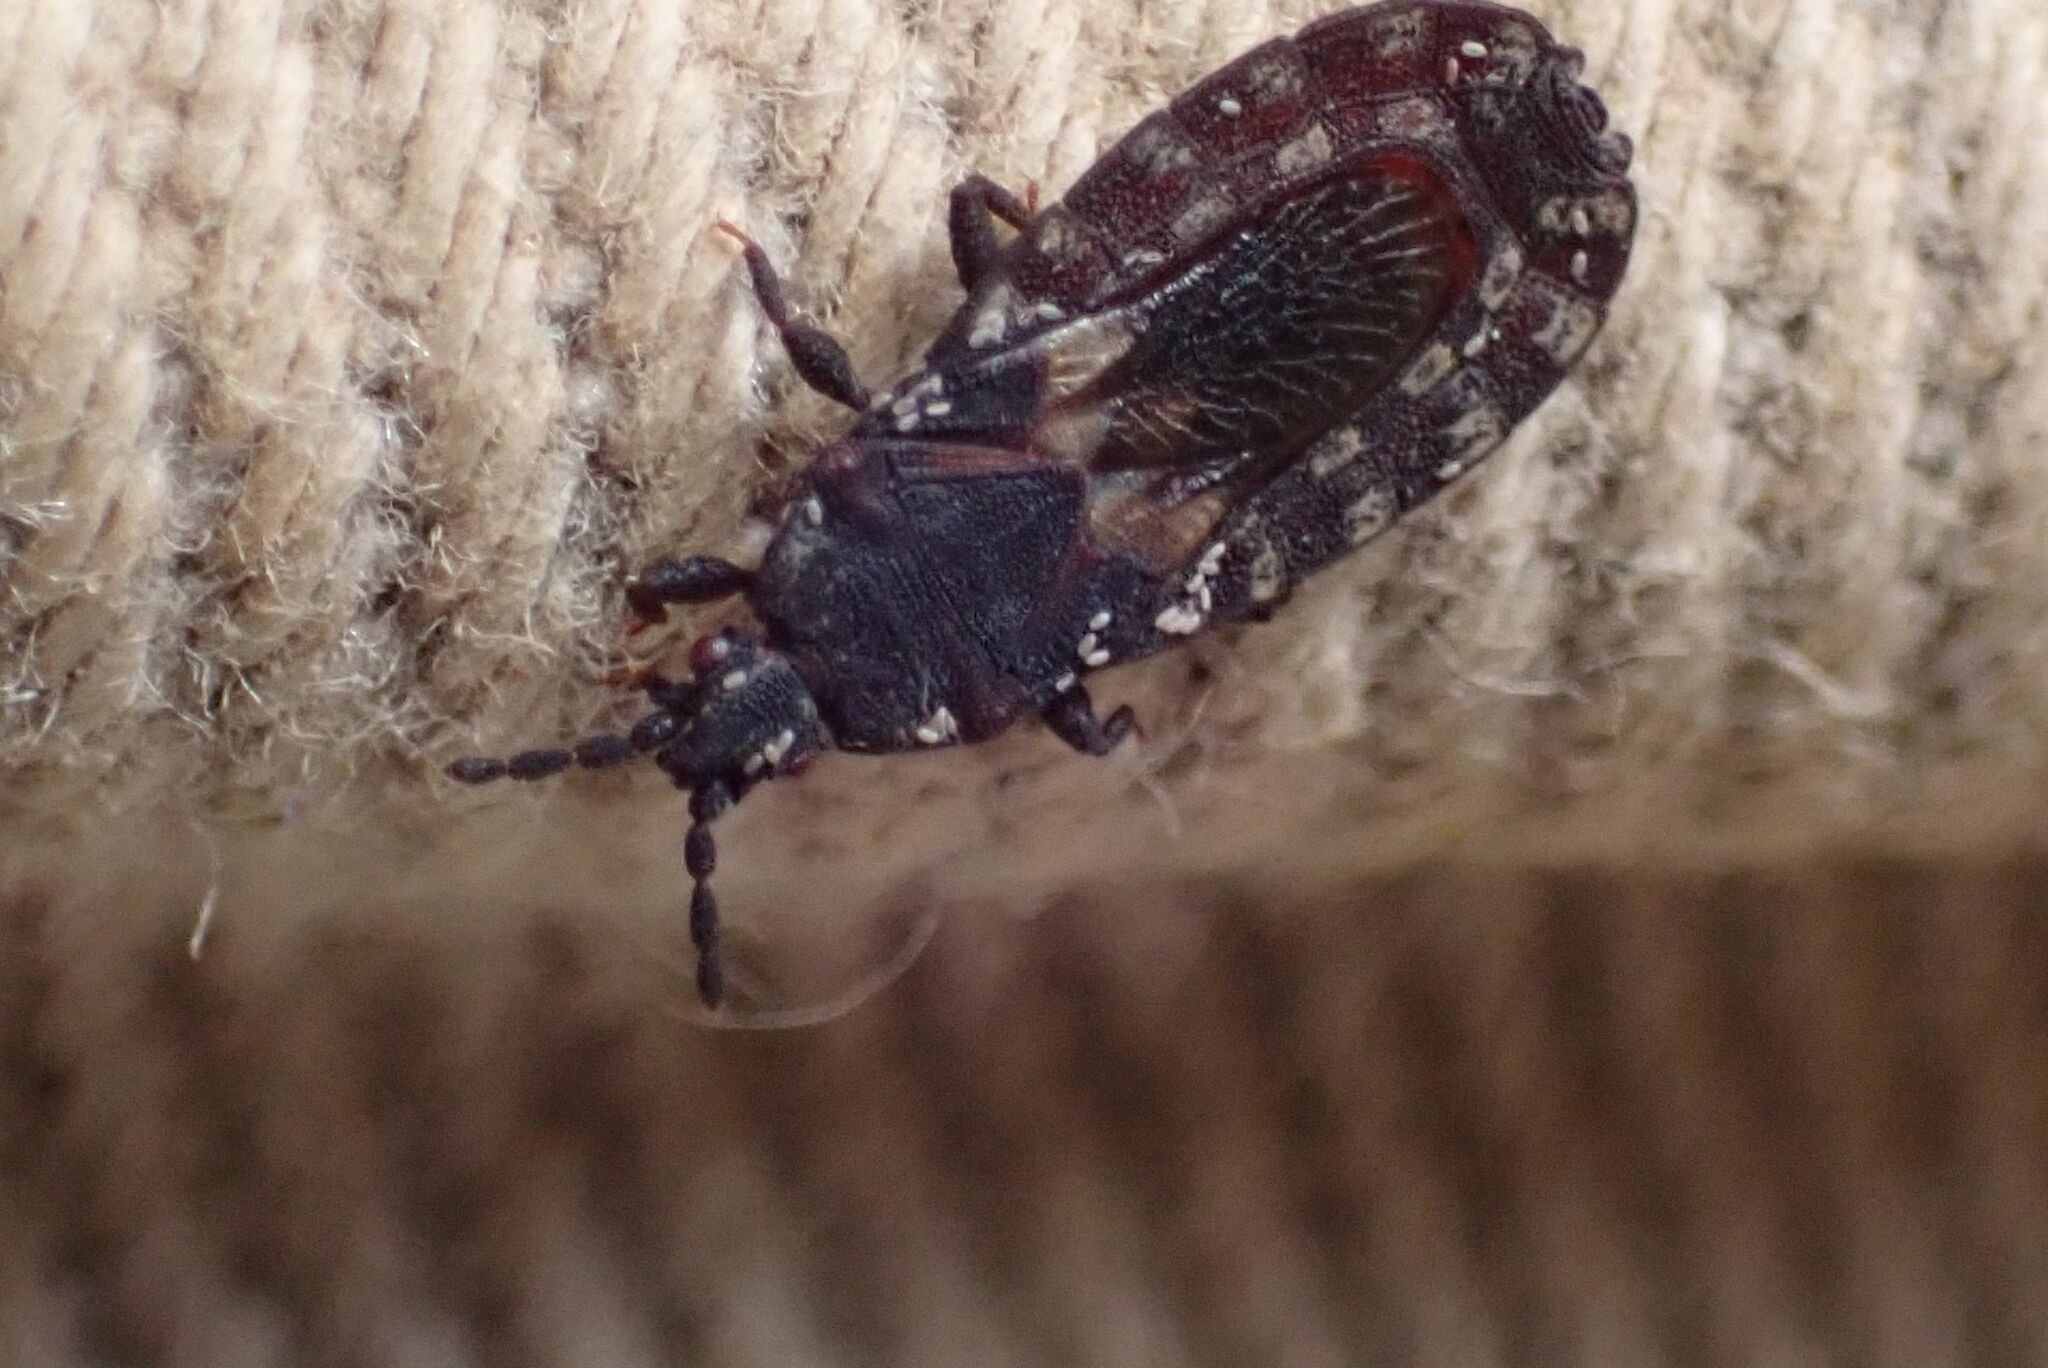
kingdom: Animalia
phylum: Arthropoda
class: Insecta
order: Hemiptera
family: Aradidae
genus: Neuroctenus
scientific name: Neuroctenus caffer
